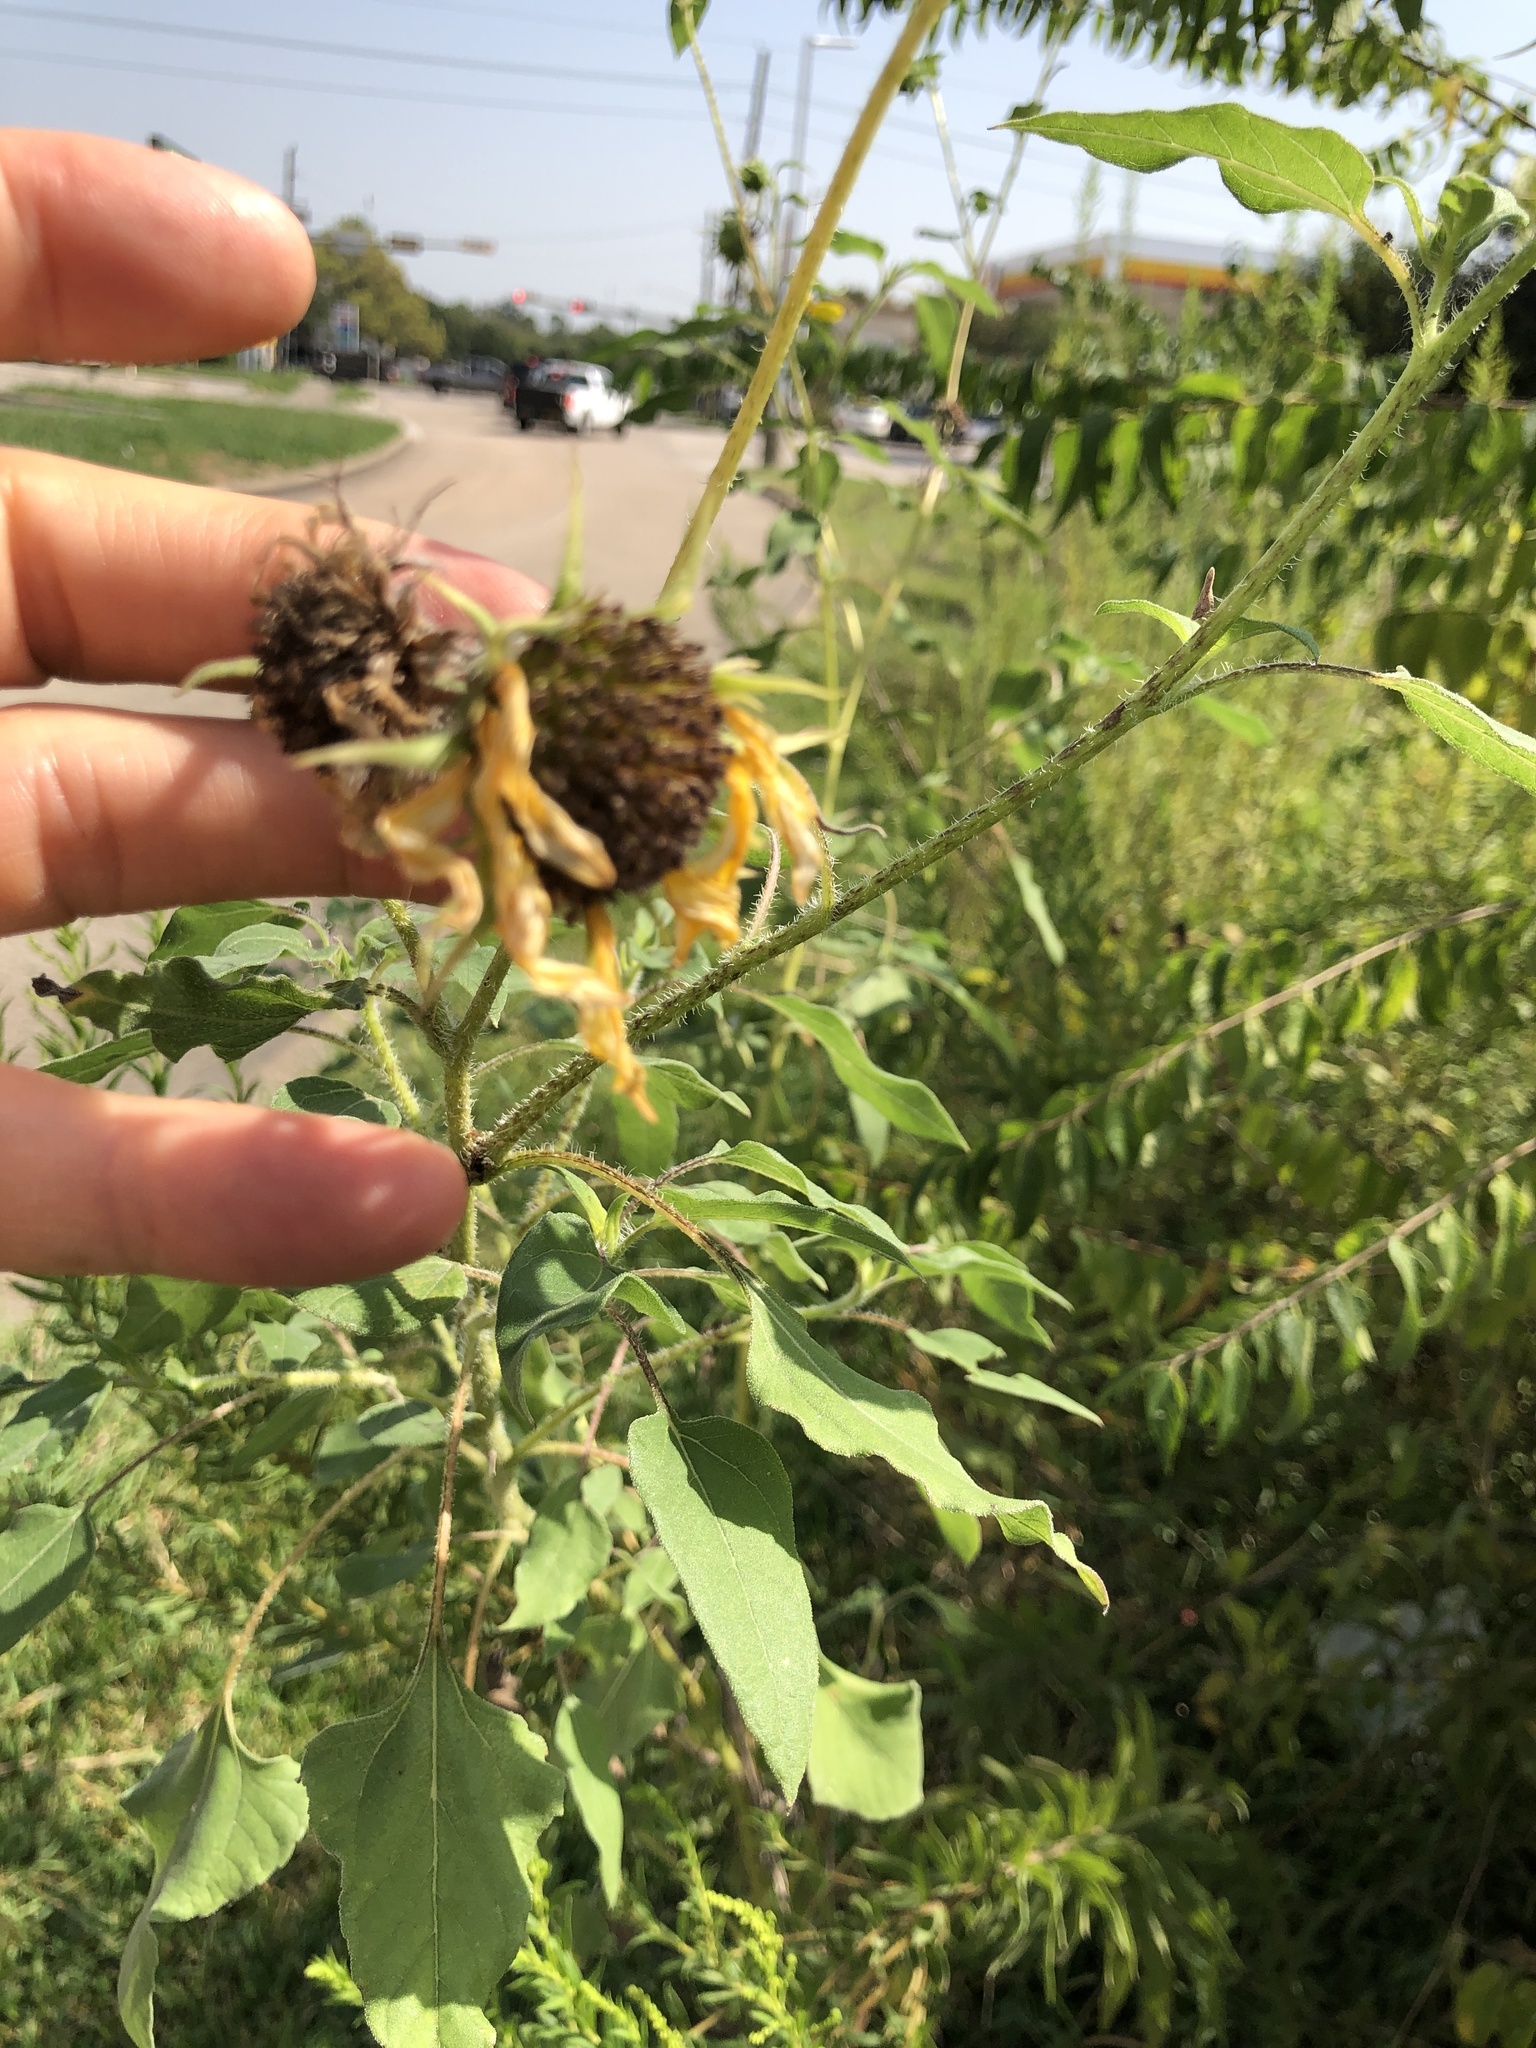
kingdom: Plantae
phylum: Tracheophyta
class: Magnoliopsida
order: Asterales
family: Asteraceae
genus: Helianthus
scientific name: Helianthus annuus
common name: Sunflower
